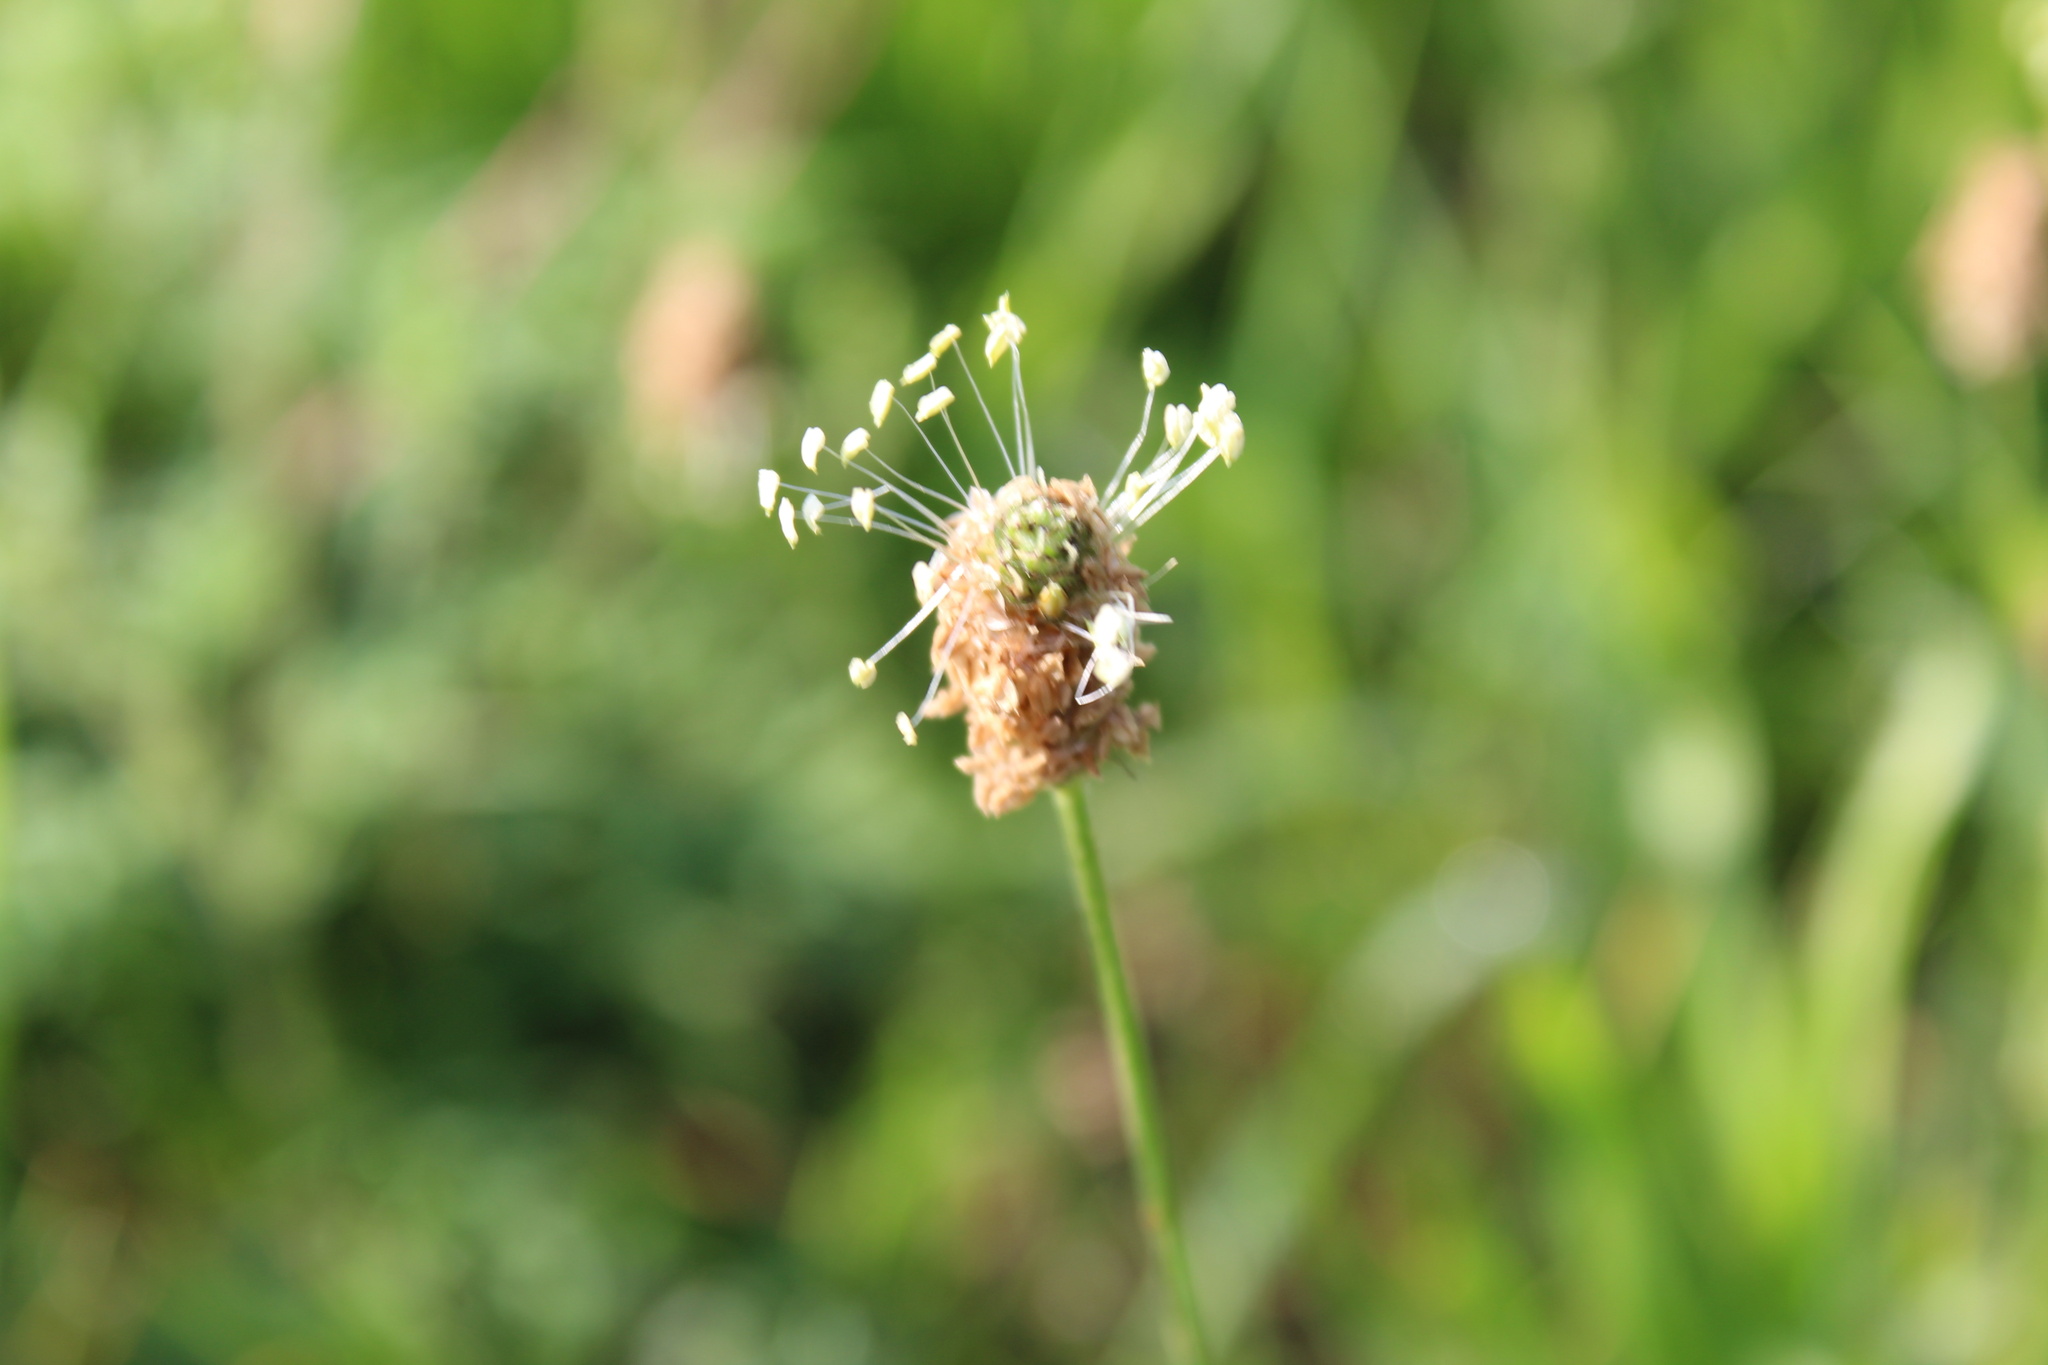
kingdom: Plantae
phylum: Tracheophyta
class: Magnoliopsida
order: Lamiales
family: Plantaginaceae
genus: Plantago
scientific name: Plantago lanceolata
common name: Ribwort plantain
